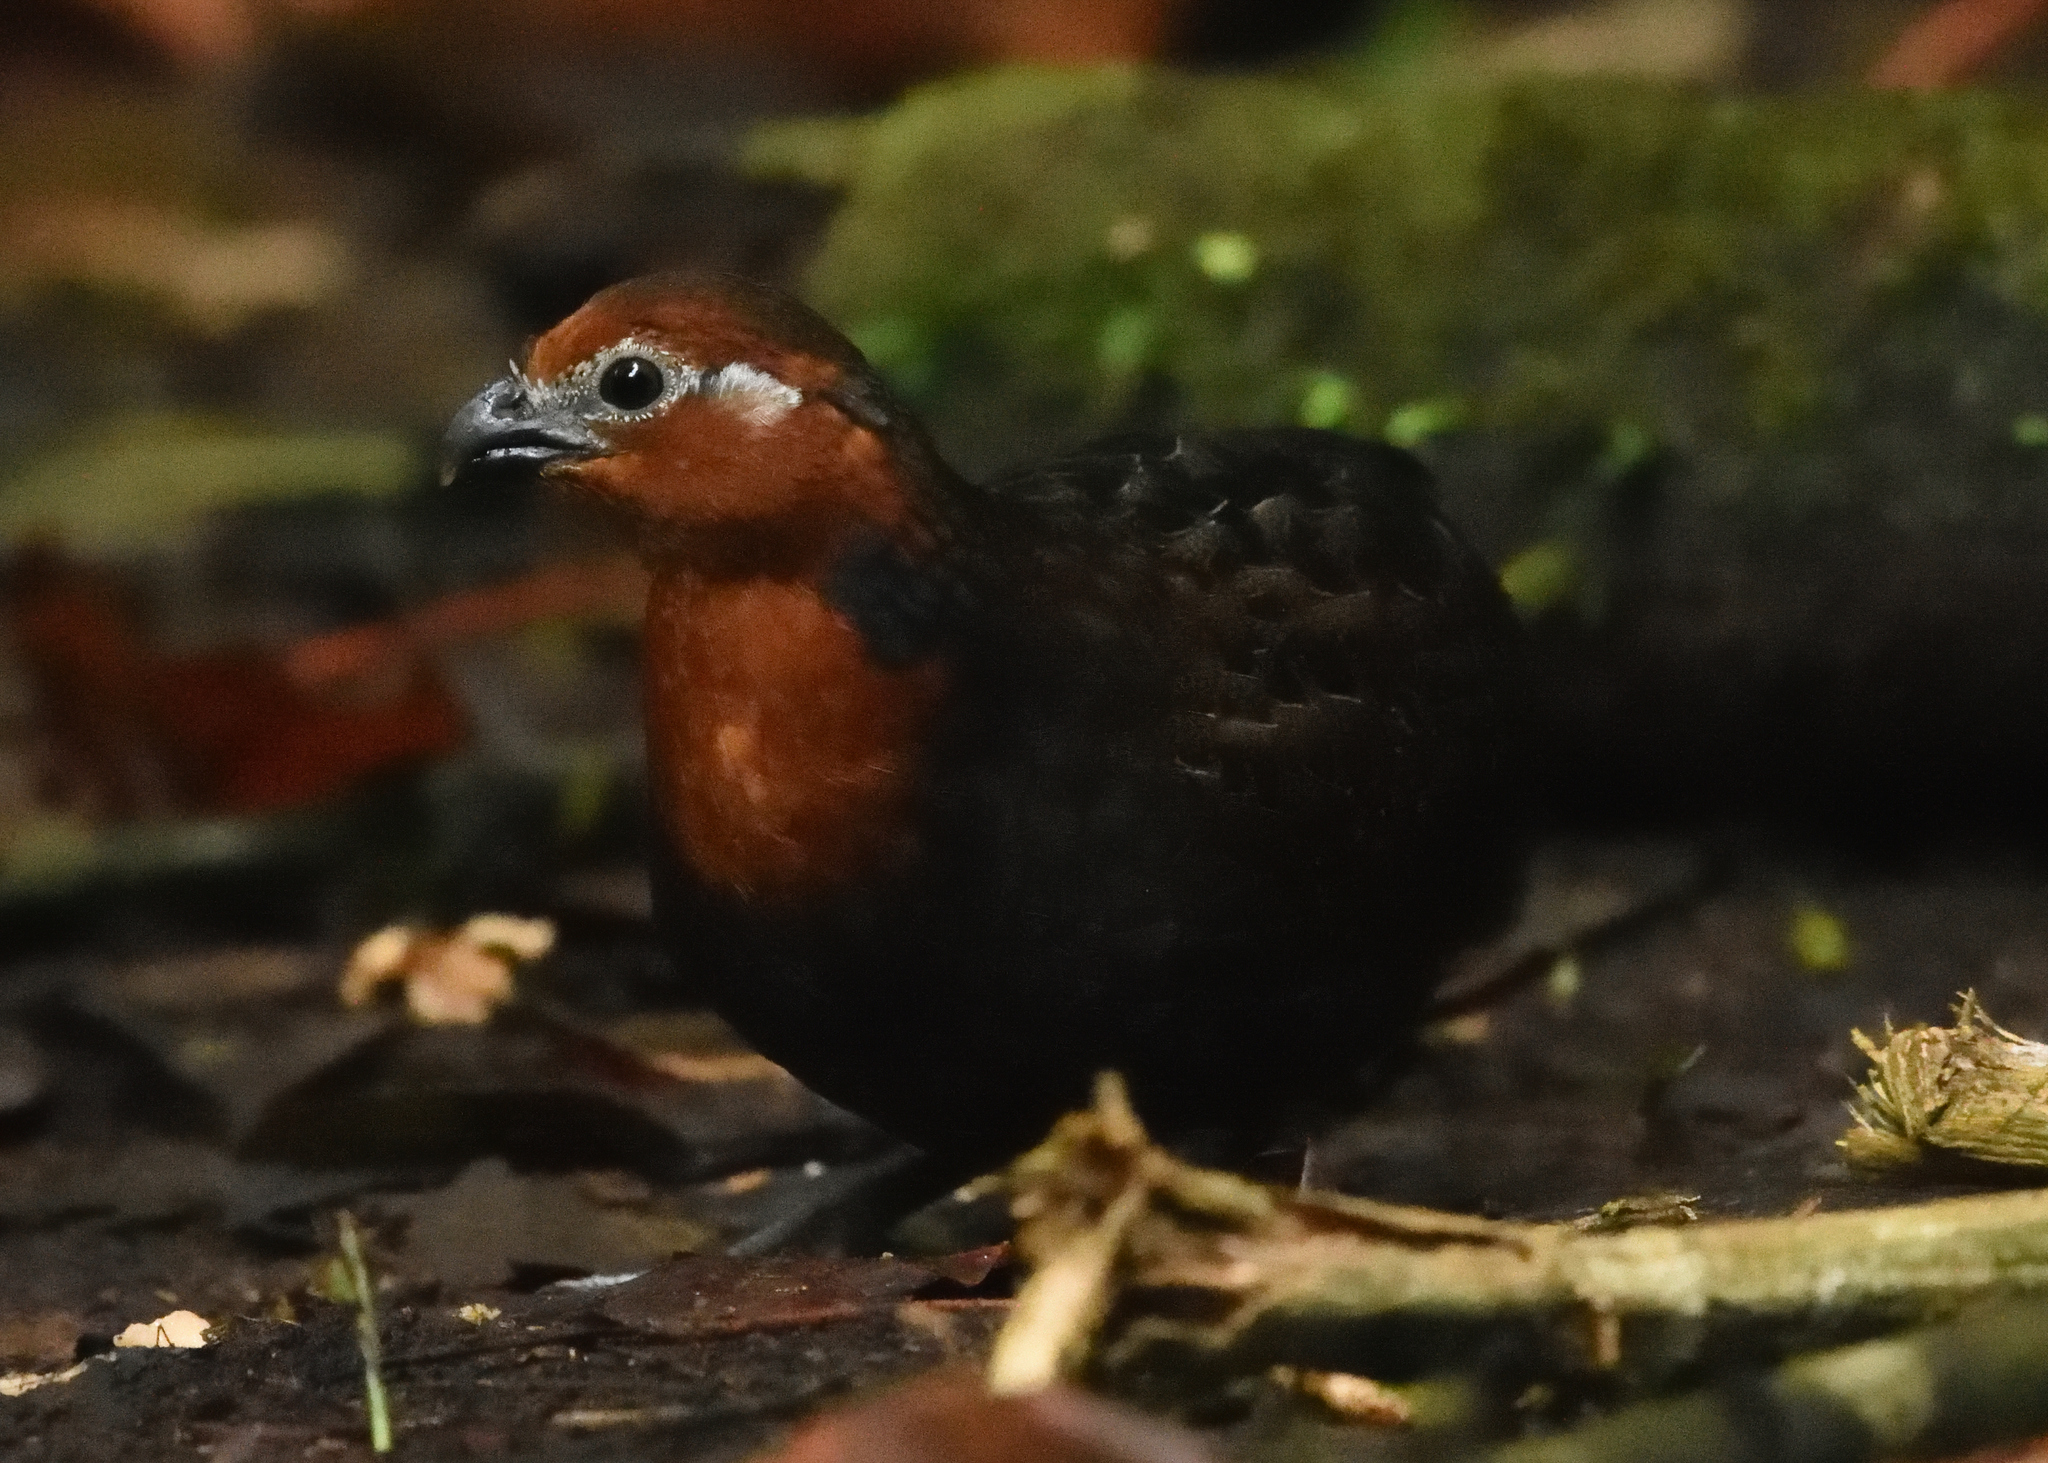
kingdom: Animalia
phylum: Chordata
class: Aves
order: Galliformes
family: Odontophoridae
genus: Odontophorus
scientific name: Odontophorus hyperythrus
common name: Chestnut wood-quail
